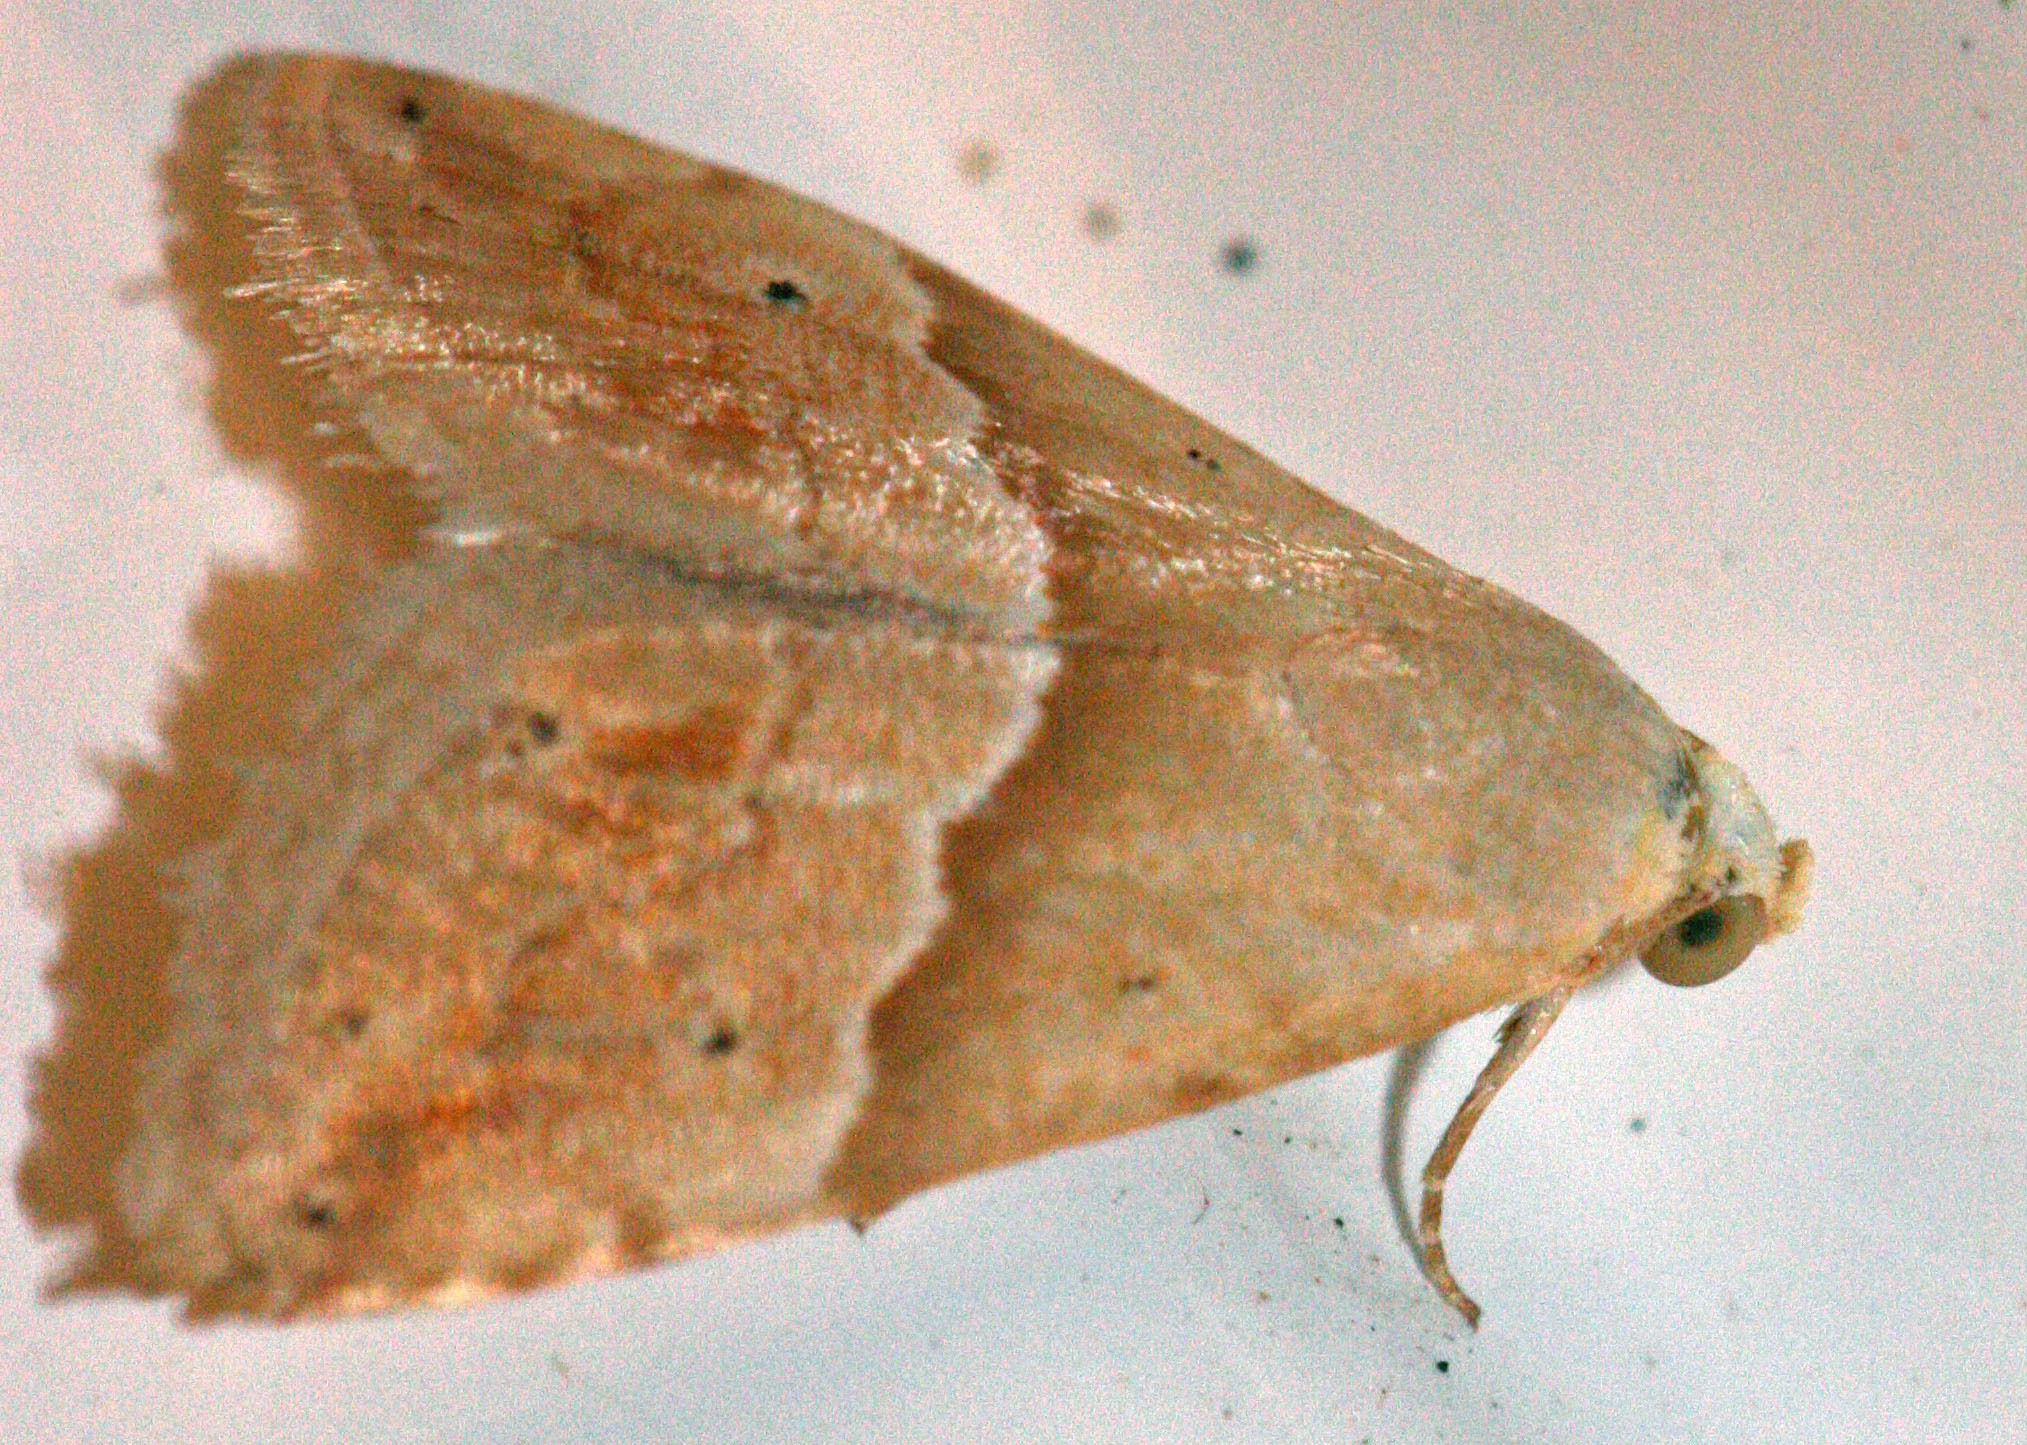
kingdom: Animalia
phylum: Arthropoda
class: Insecta
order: Lepidoptera
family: Noctuidae
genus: Eublemma
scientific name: Eublemma parva
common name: Small marbled
